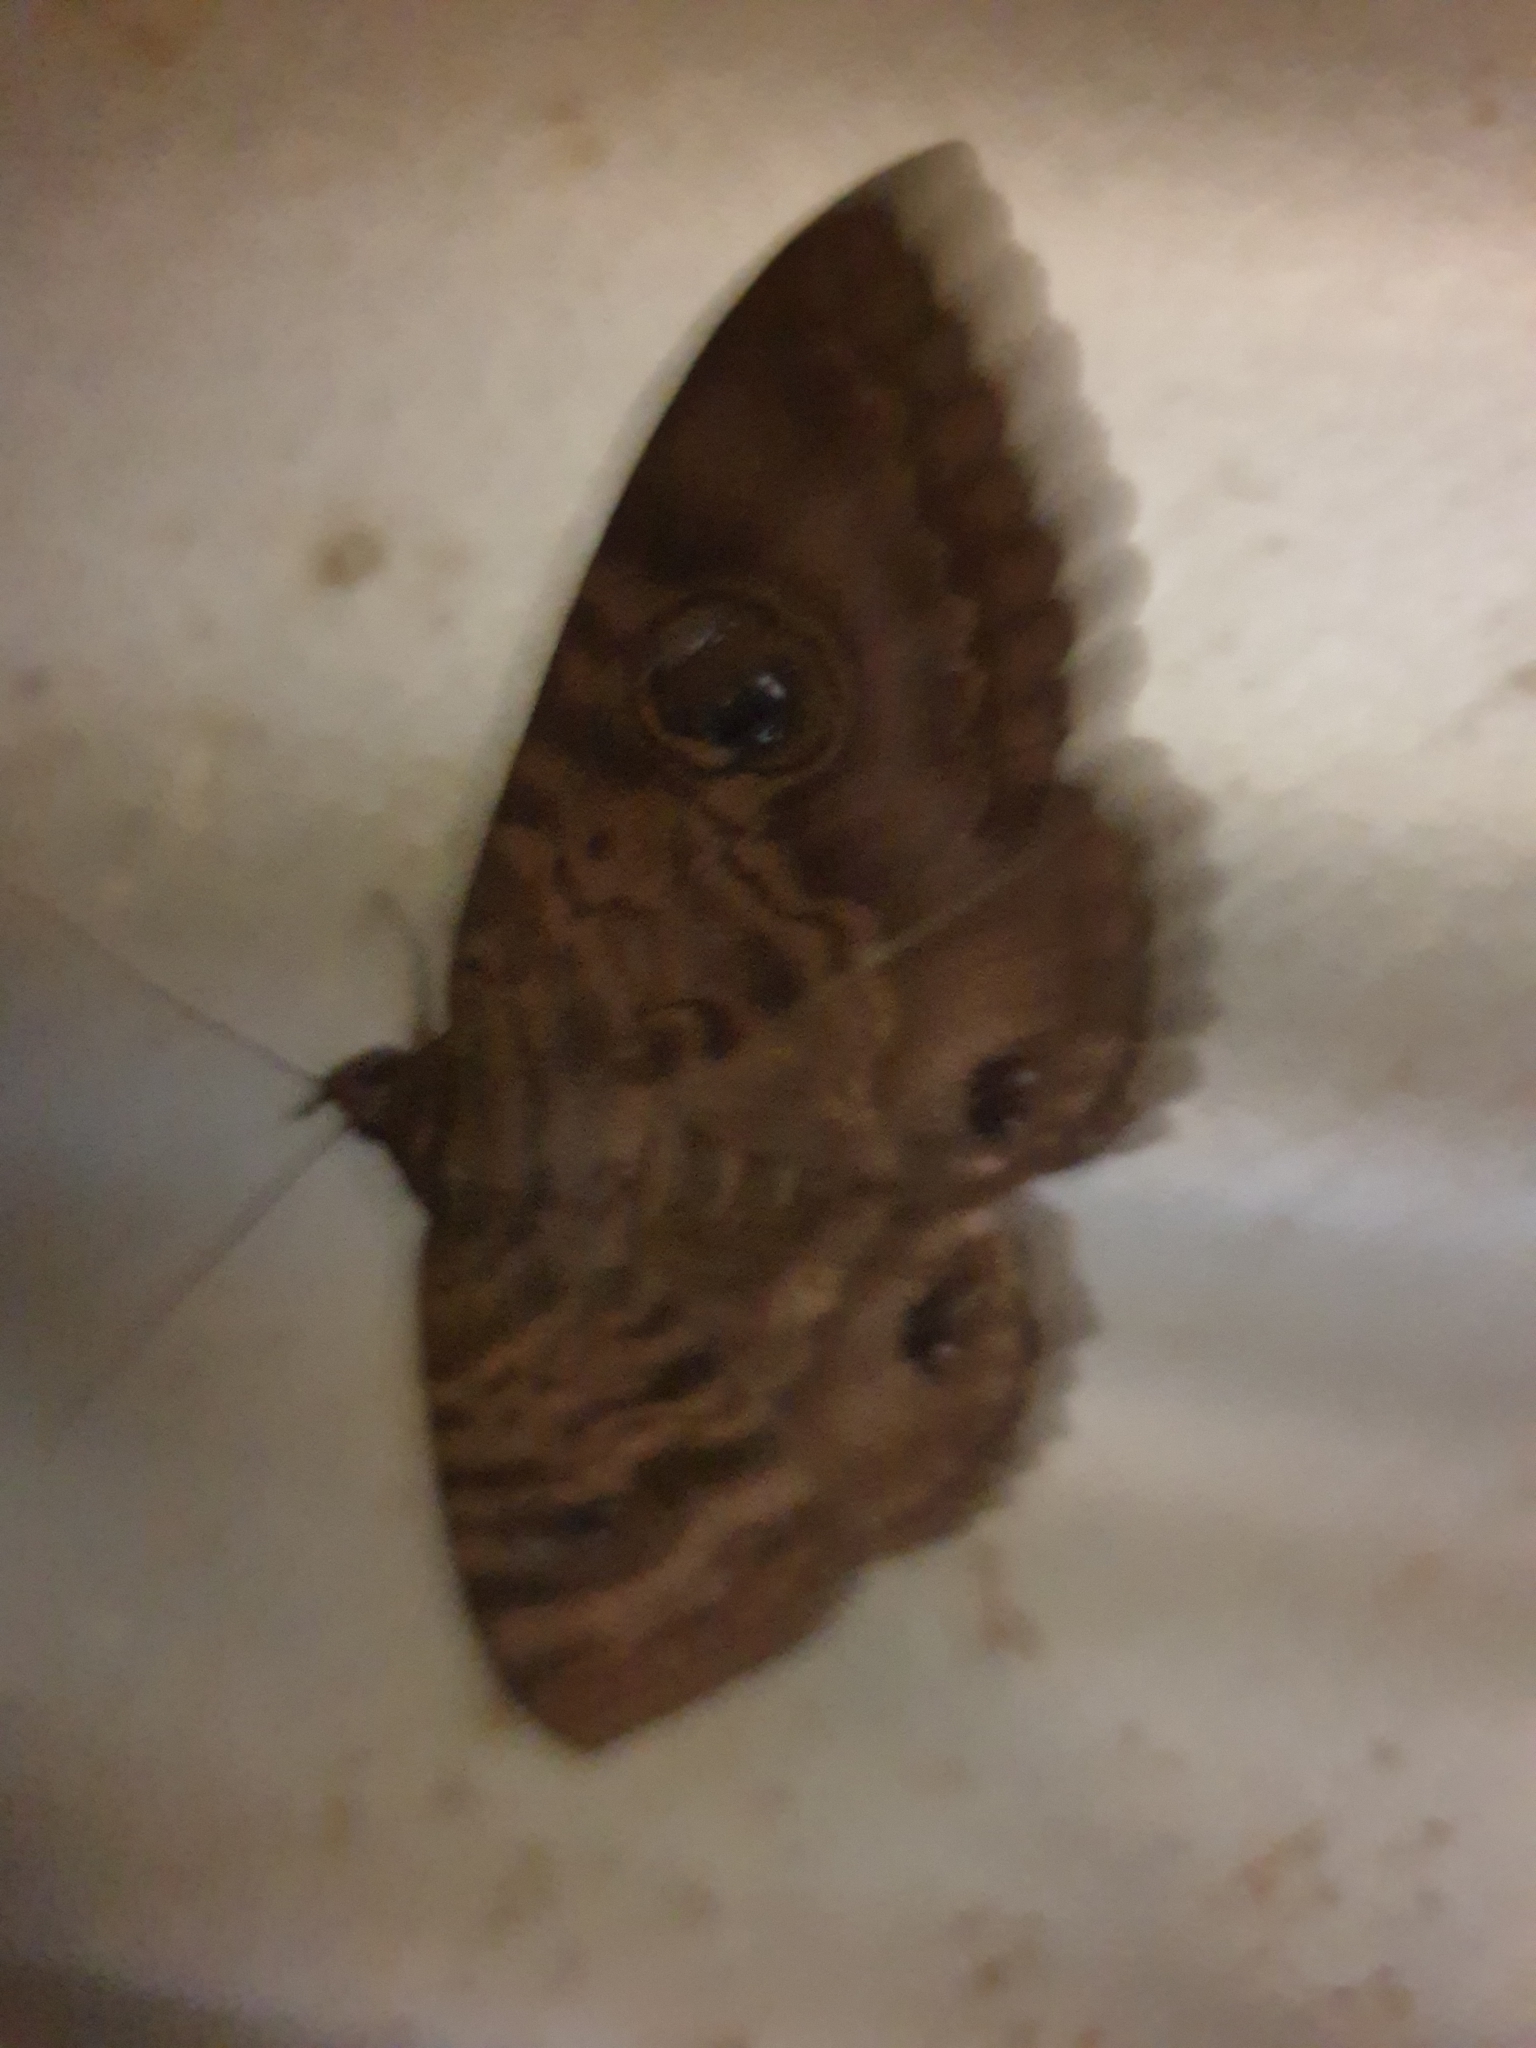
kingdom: Animalia
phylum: Arthropoda
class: Insecta
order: Lepidoptera
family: Erebidae
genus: Speiredonia
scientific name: Speiredonia spectans
